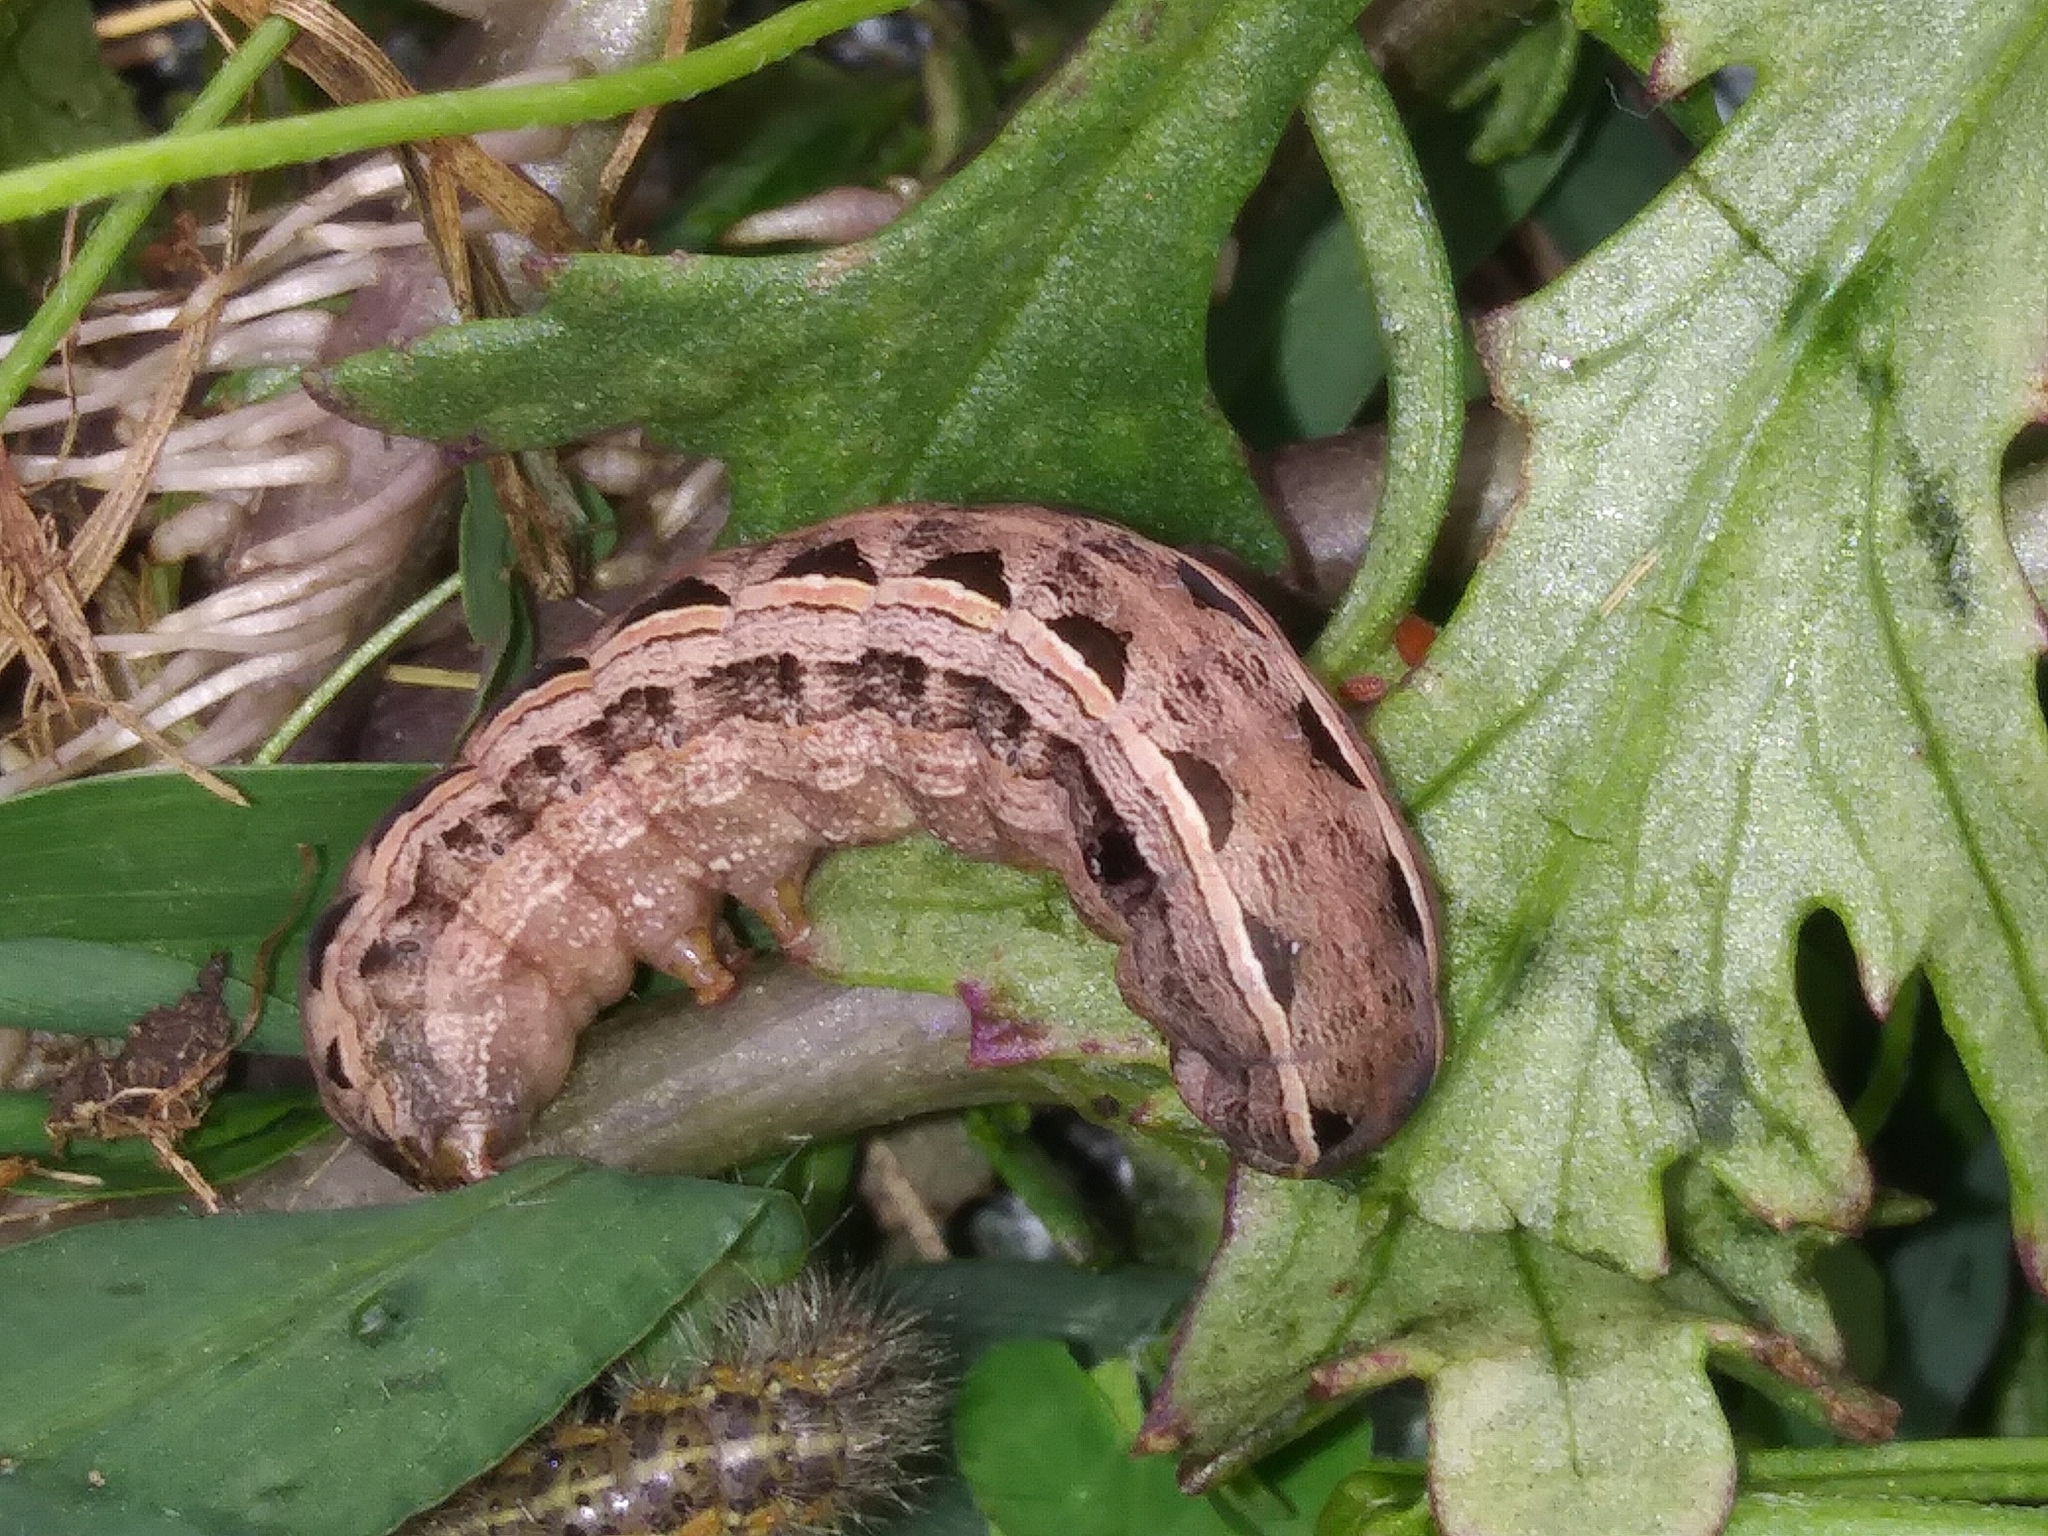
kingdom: Animalia
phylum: Arthropoda
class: Insecta
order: Lepidoptera
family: Noctuidae
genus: Spodoptera
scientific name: Spodoptera ornithogalli
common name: Yellow-striped armyworm
